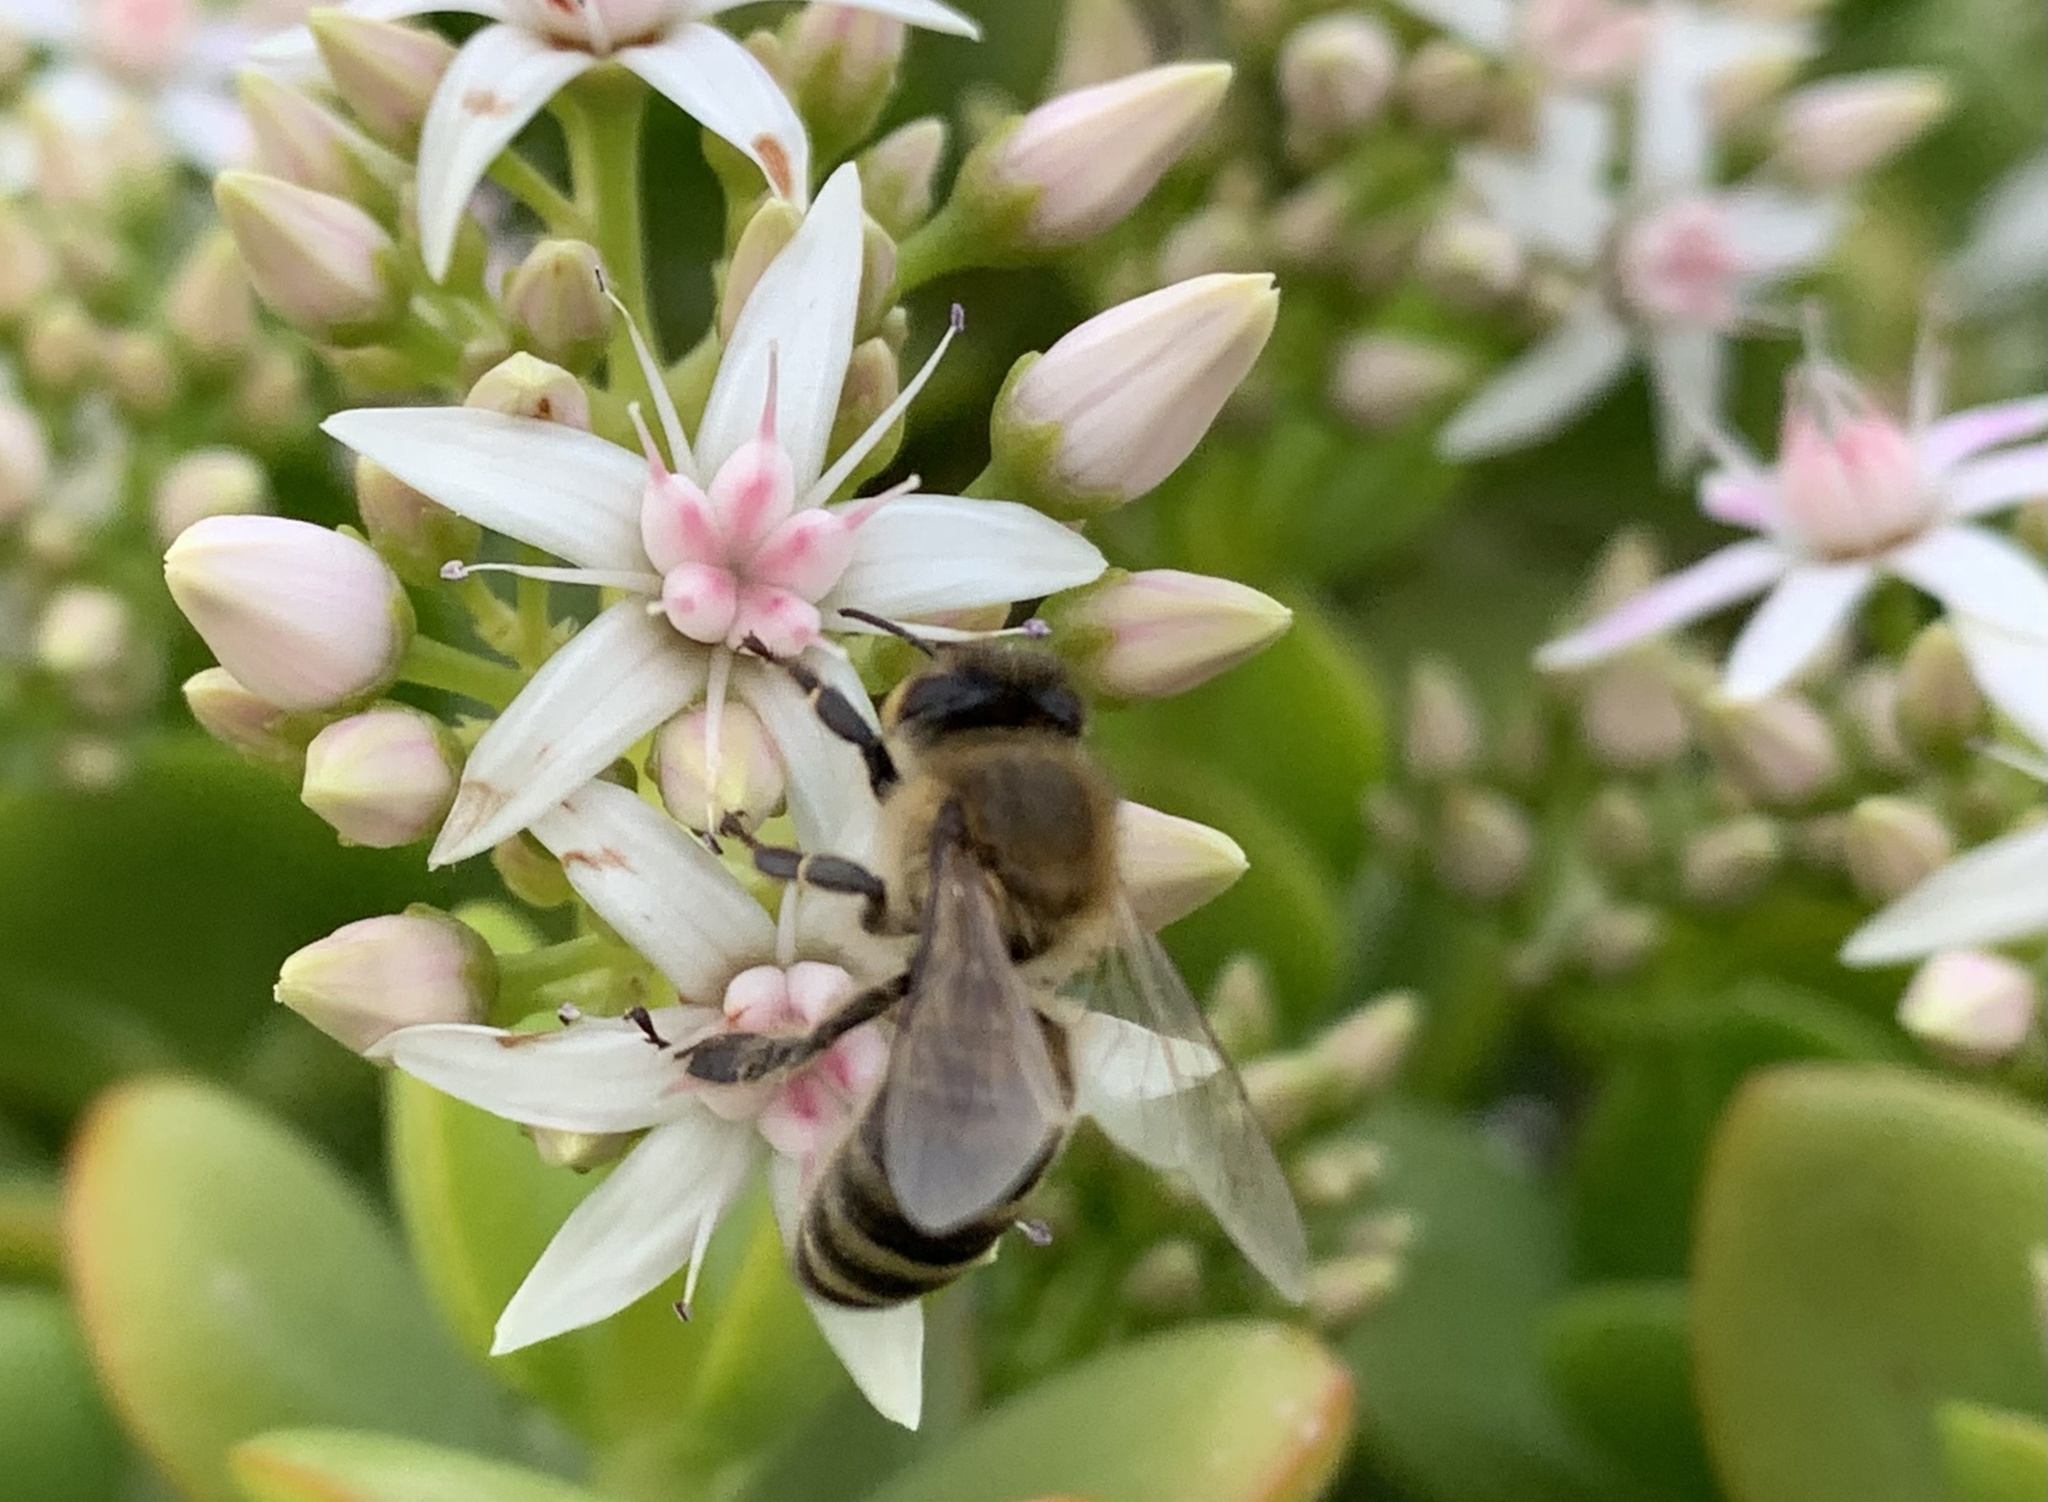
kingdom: Animalia
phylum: Arthropoda
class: Insecta
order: Hymenoptera
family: Apidae
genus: Apis
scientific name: Apis mellifera
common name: Honey bee
